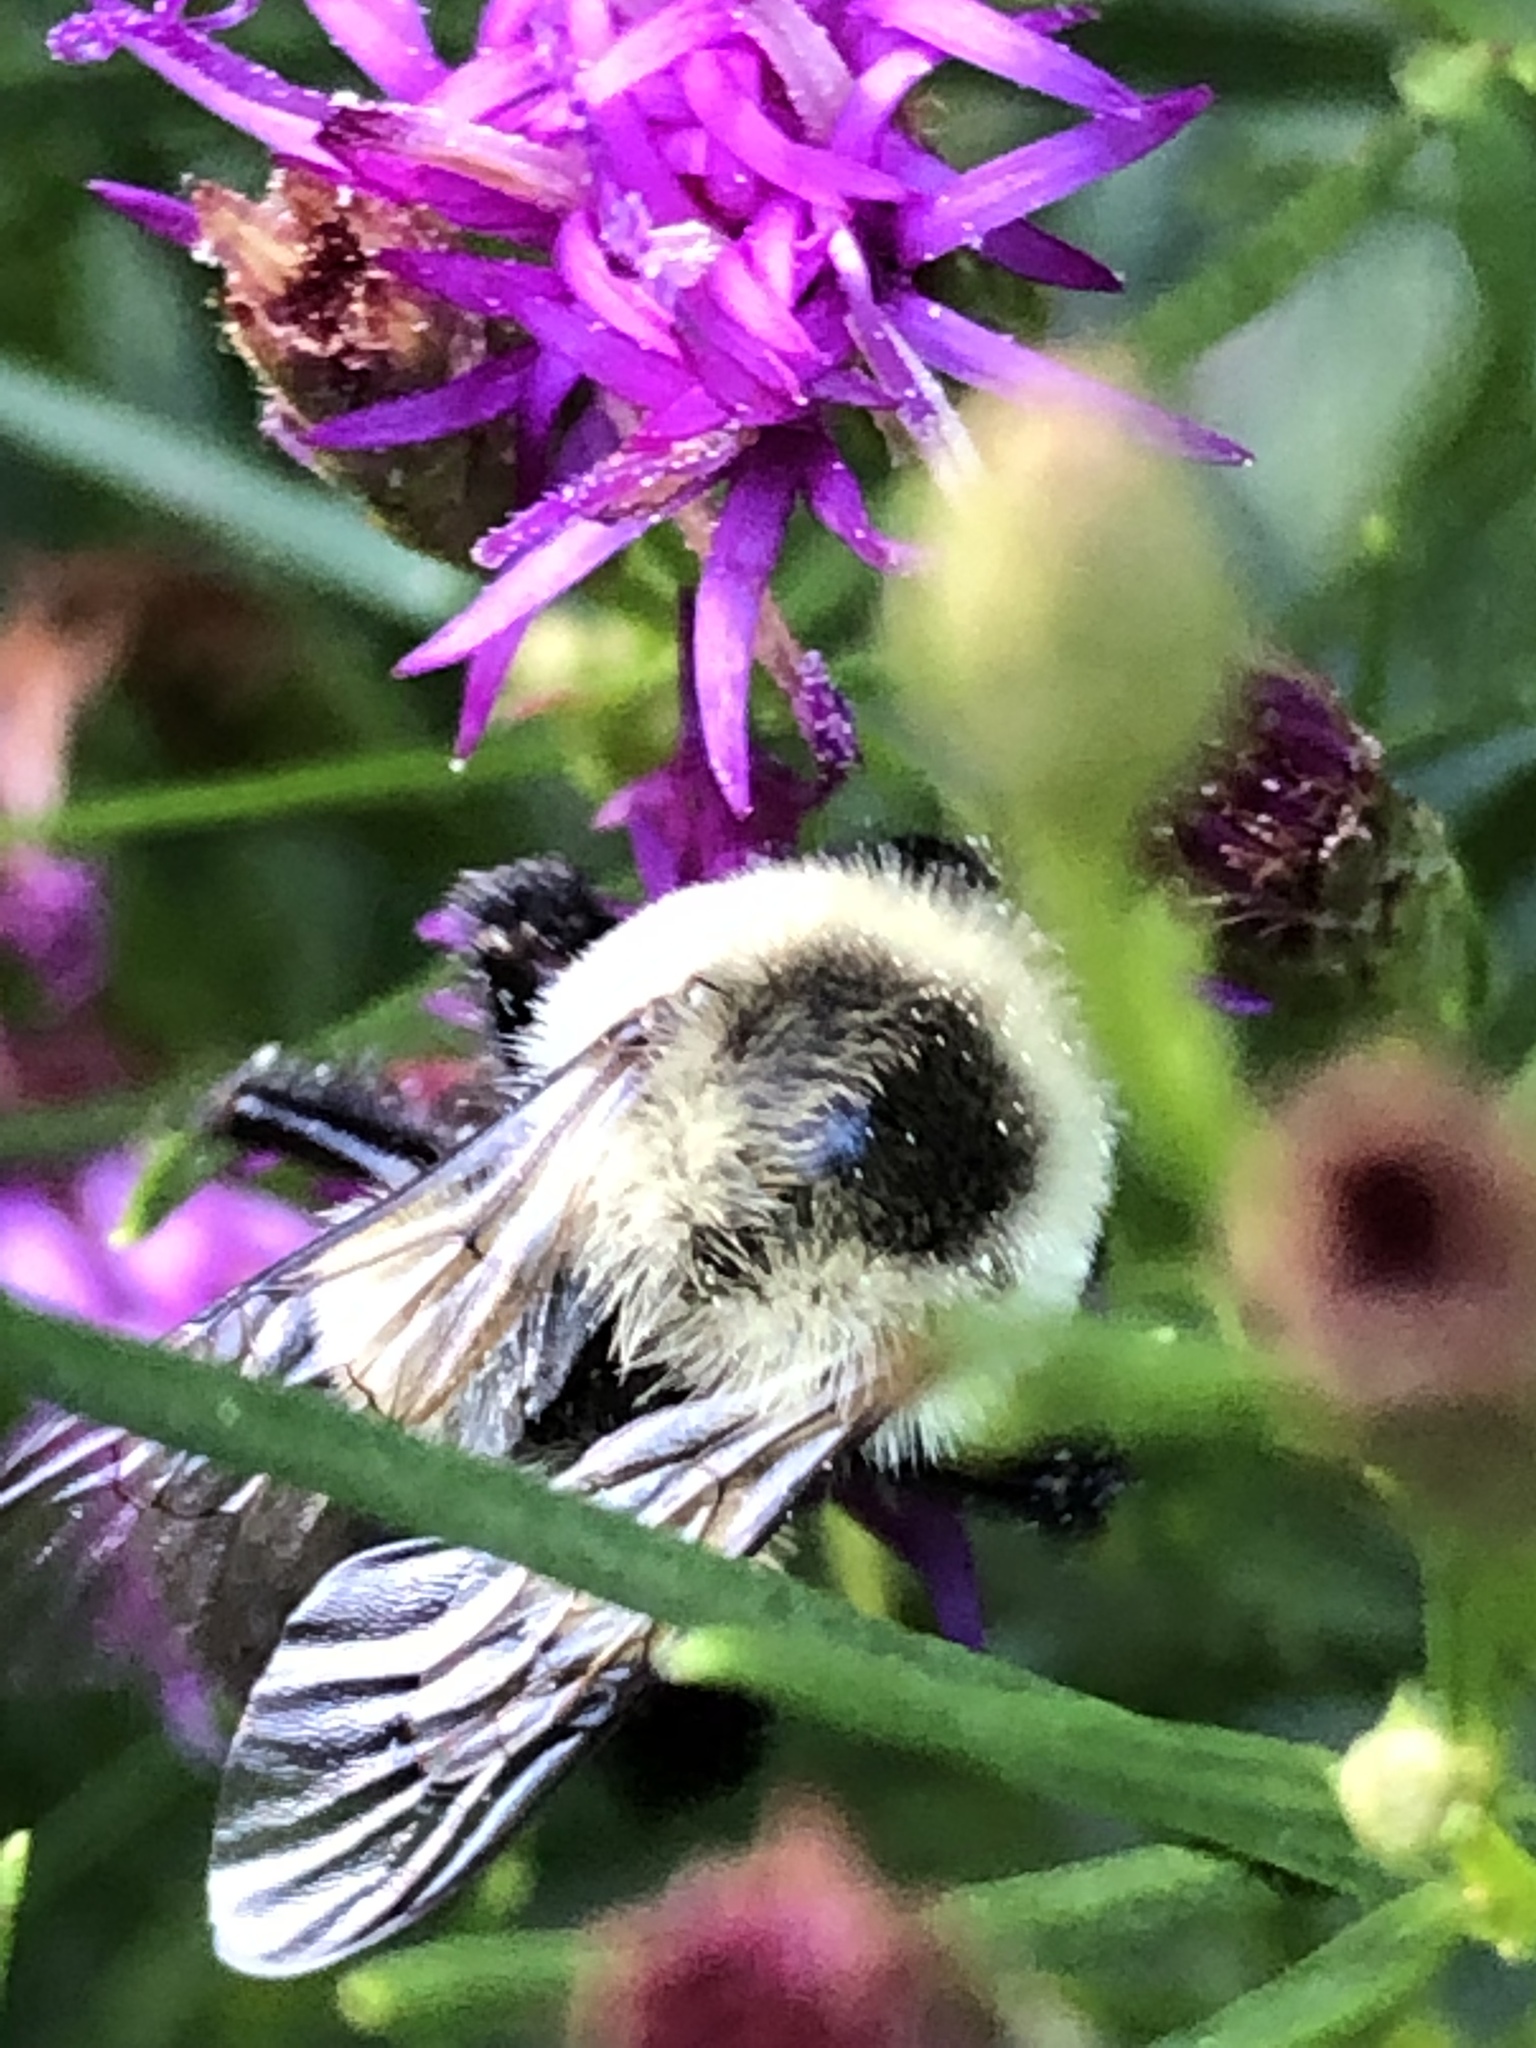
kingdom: Animalia
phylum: Arthropoda
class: Insecta
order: Hymenoptera
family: Apidae
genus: Bombus
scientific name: Bombus impatiens
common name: Common eastern bumble bee
